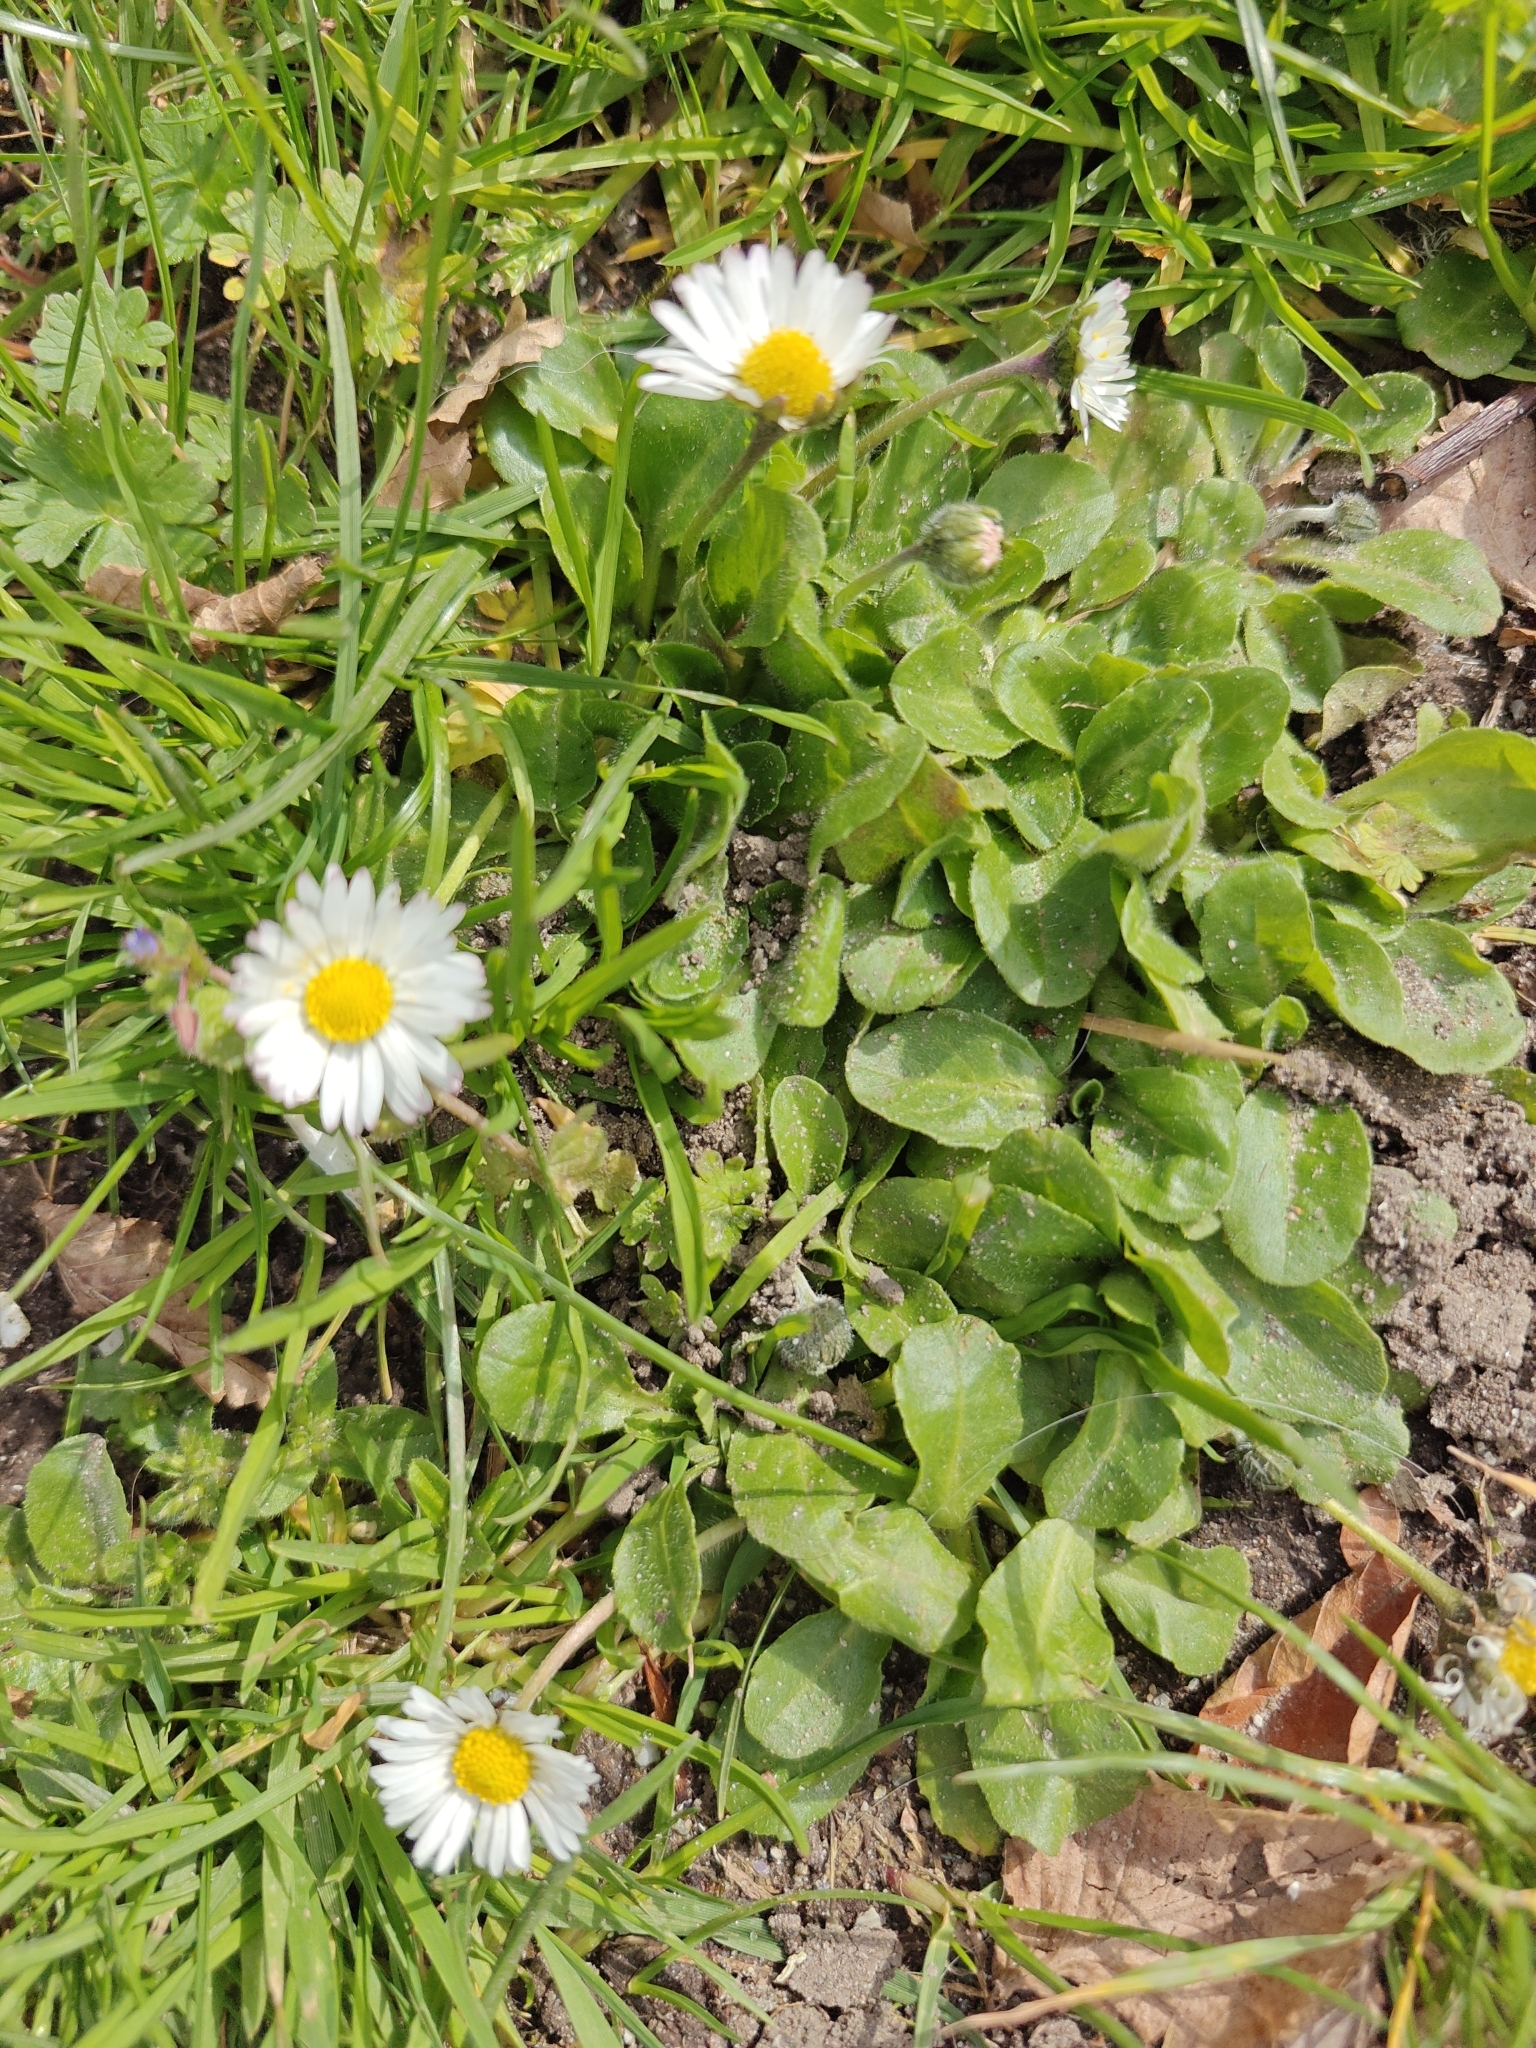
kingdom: Plantae
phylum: Tracheophyta
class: Magnoliopsida
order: Asterales
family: Asteraceae
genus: Bellis
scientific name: Bellis perennis
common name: Lawndaisy
